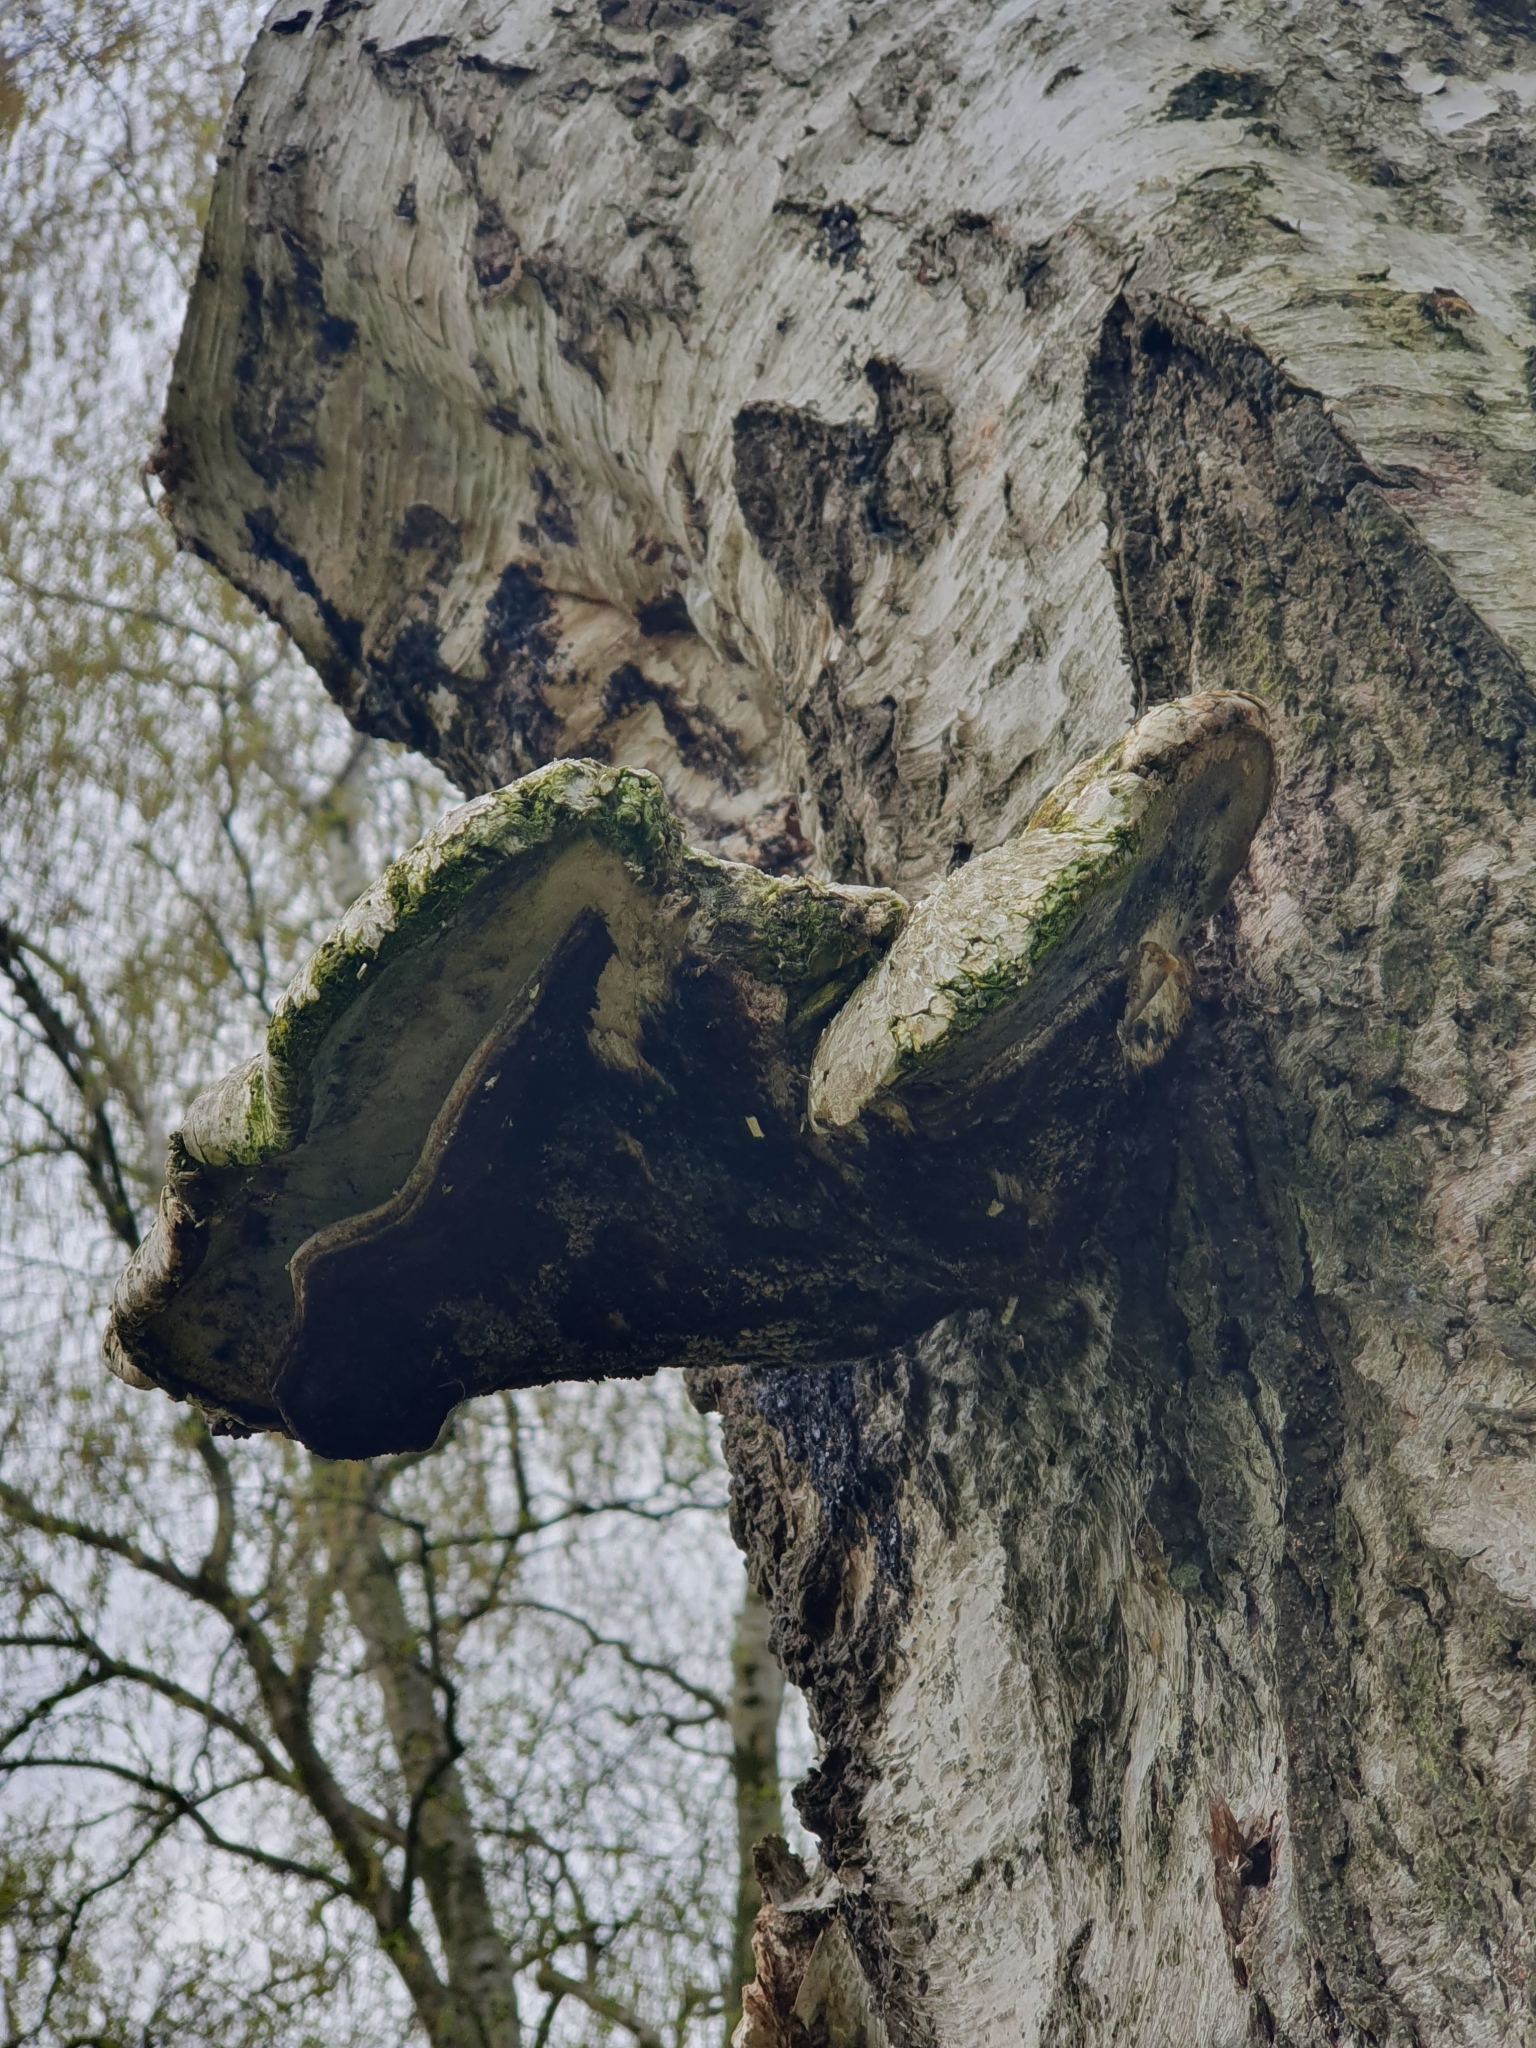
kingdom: Fungi
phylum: Basidiomycota
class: Agaricomycetes
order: Polyporales
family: Fomitopsidaceae
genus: Fomitopsis
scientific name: Fomitopsis betulina
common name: Birch polypore
